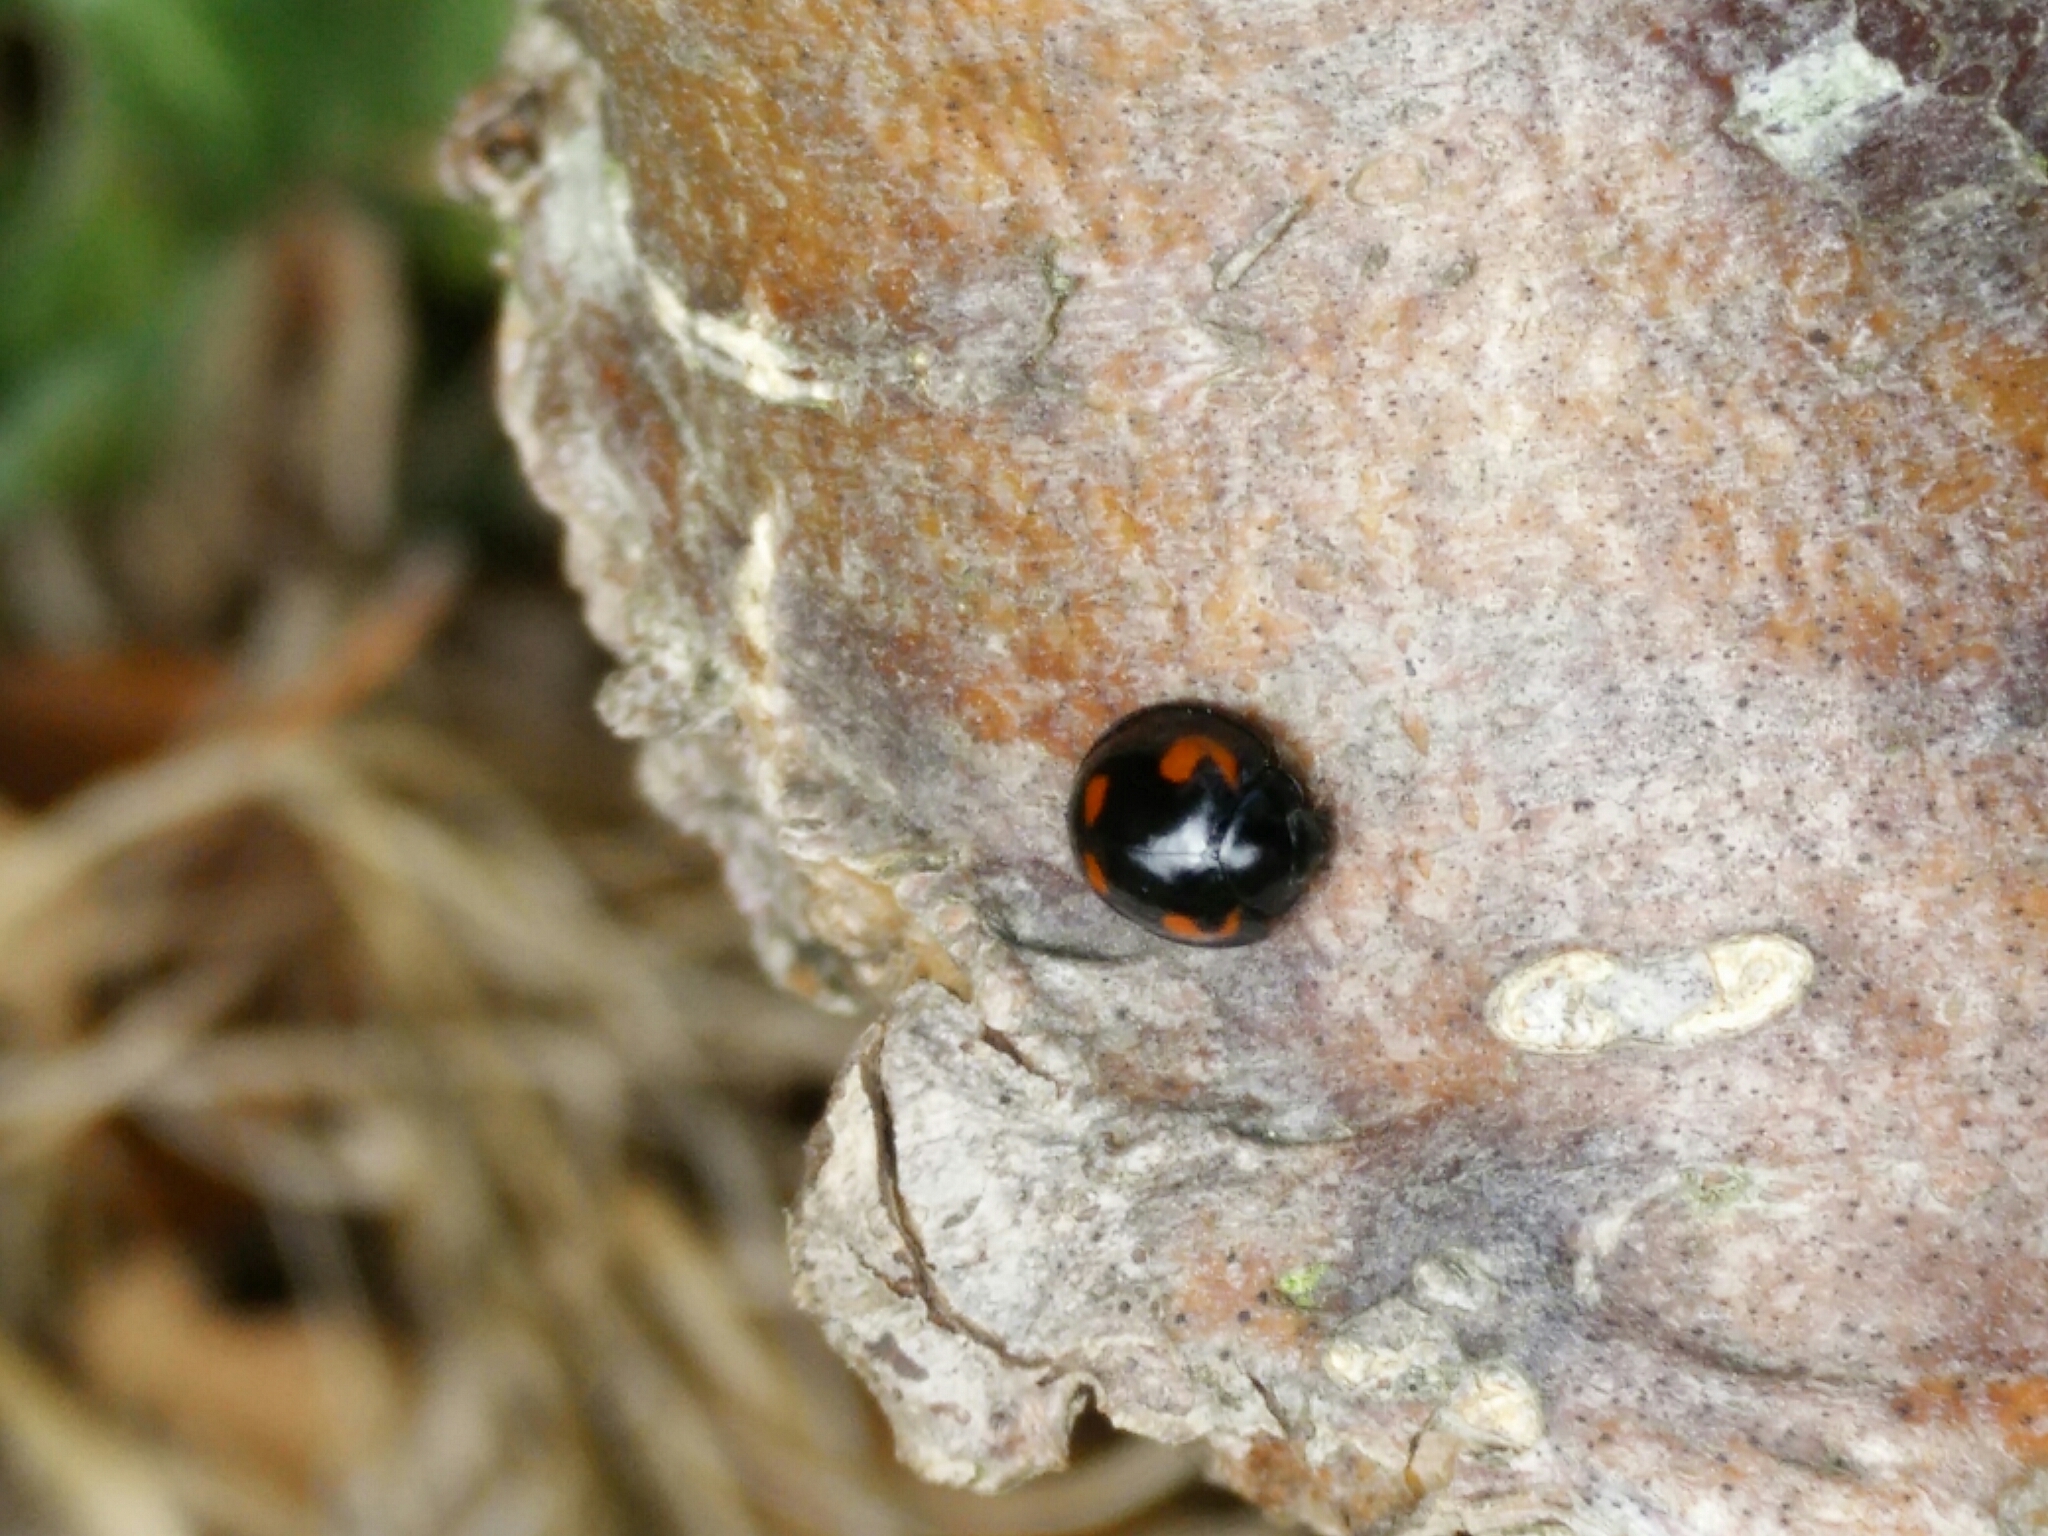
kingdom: Animalia
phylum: Arthropoda
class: Insecta
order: Coleoptera
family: Coccinellidae
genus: Brumus
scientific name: Brumus quadripustulatus
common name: Ladybird beetle
